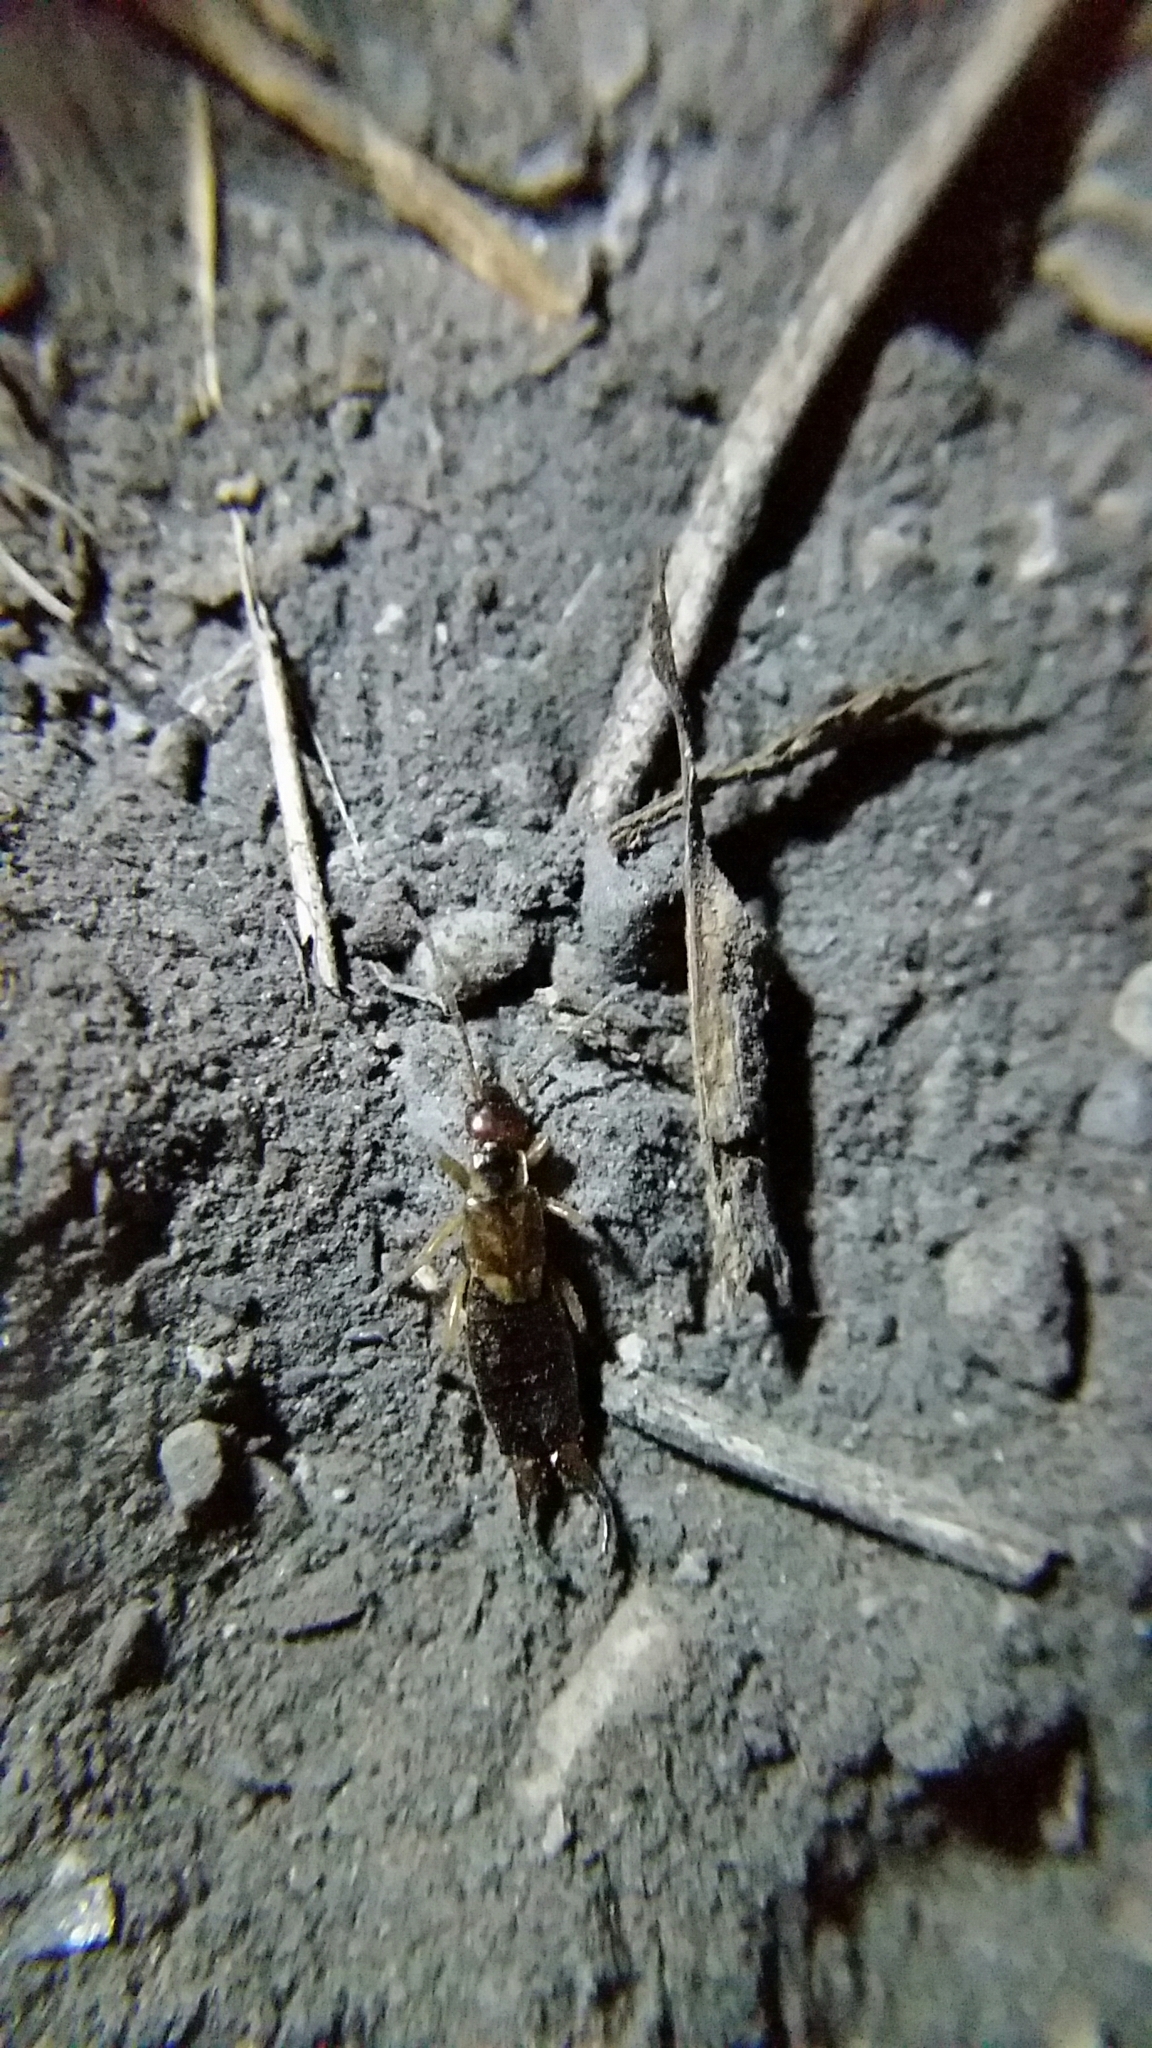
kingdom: Animalia
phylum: Arthropoda
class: Insecta
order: Dermaptera
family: Forficulidae
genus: Forficula
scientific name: Forficula
